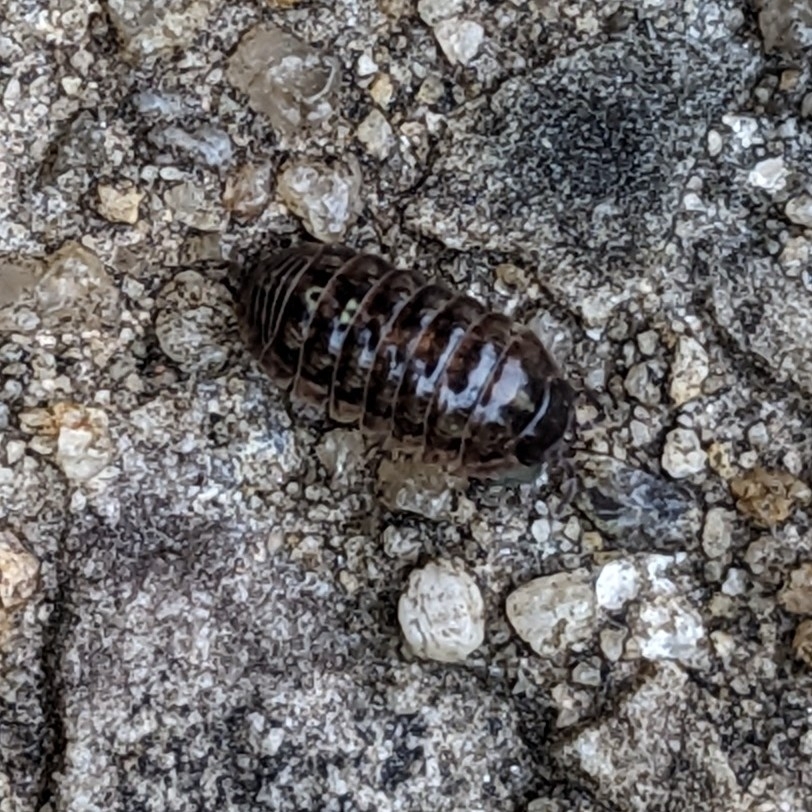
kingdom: Animalia
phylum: Arthropoda
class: Malacostraca
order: Isopoda
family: Armadillidiidae
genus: Armadillidium
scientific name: Armadillidium vulgare
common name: Common pill woodlouse
